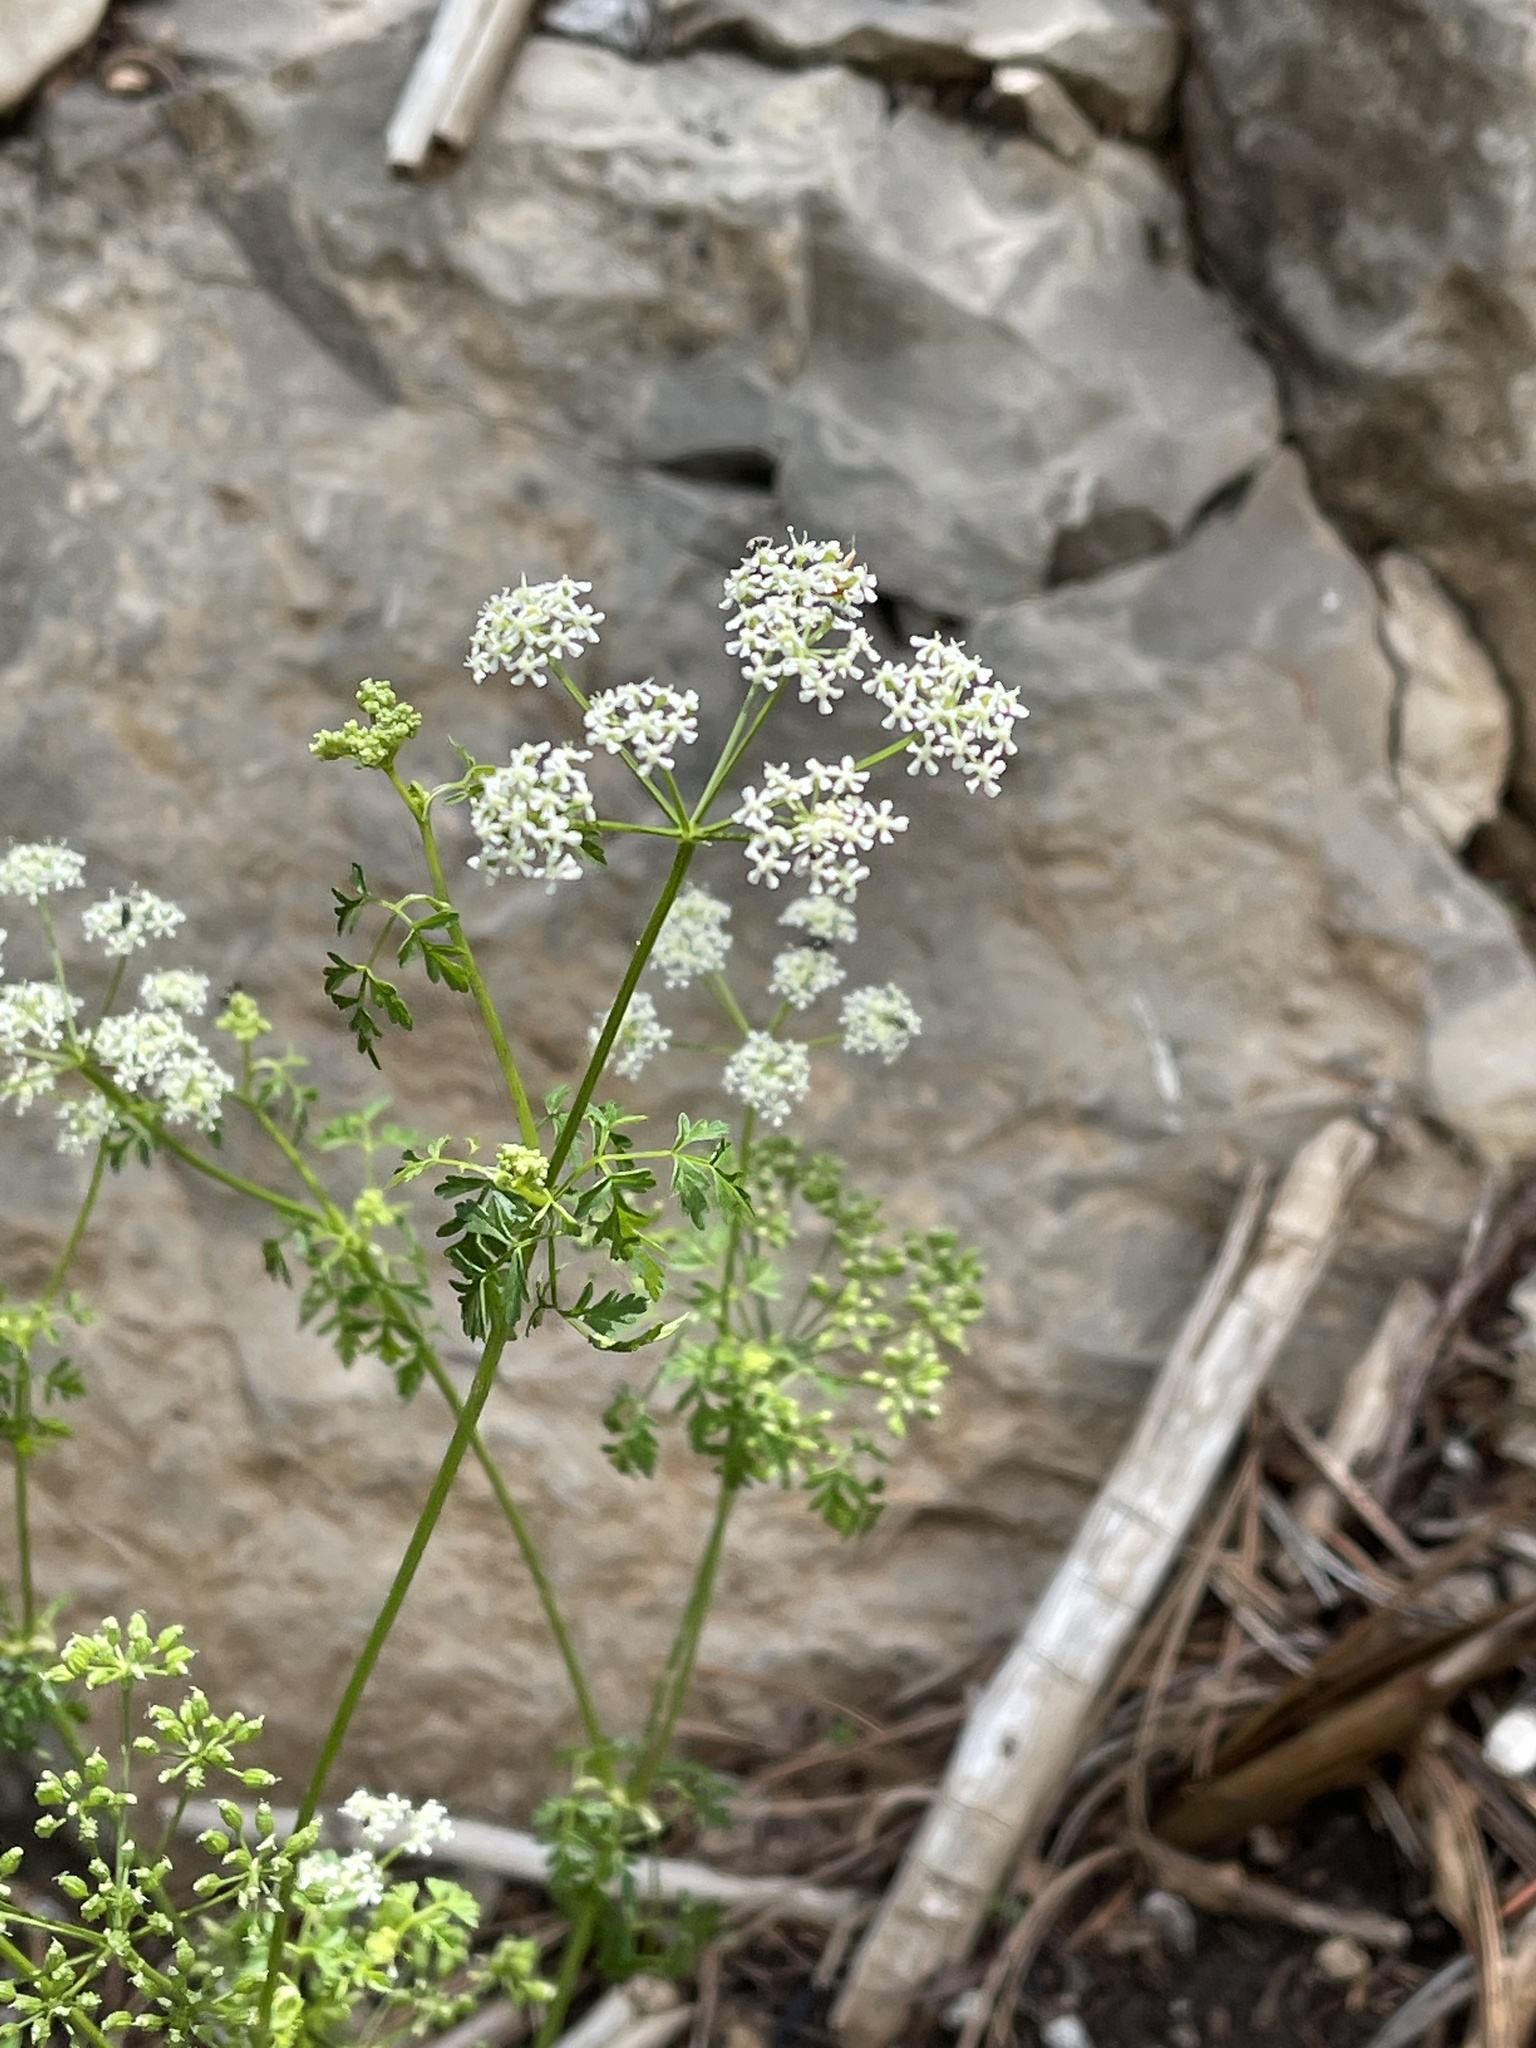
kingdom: Plantae
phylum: Tracheophyta
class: Magnoliopsida
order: Apiales
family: Apiaceae
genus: Conium
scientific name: Conium maculatum
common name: Hemlock
